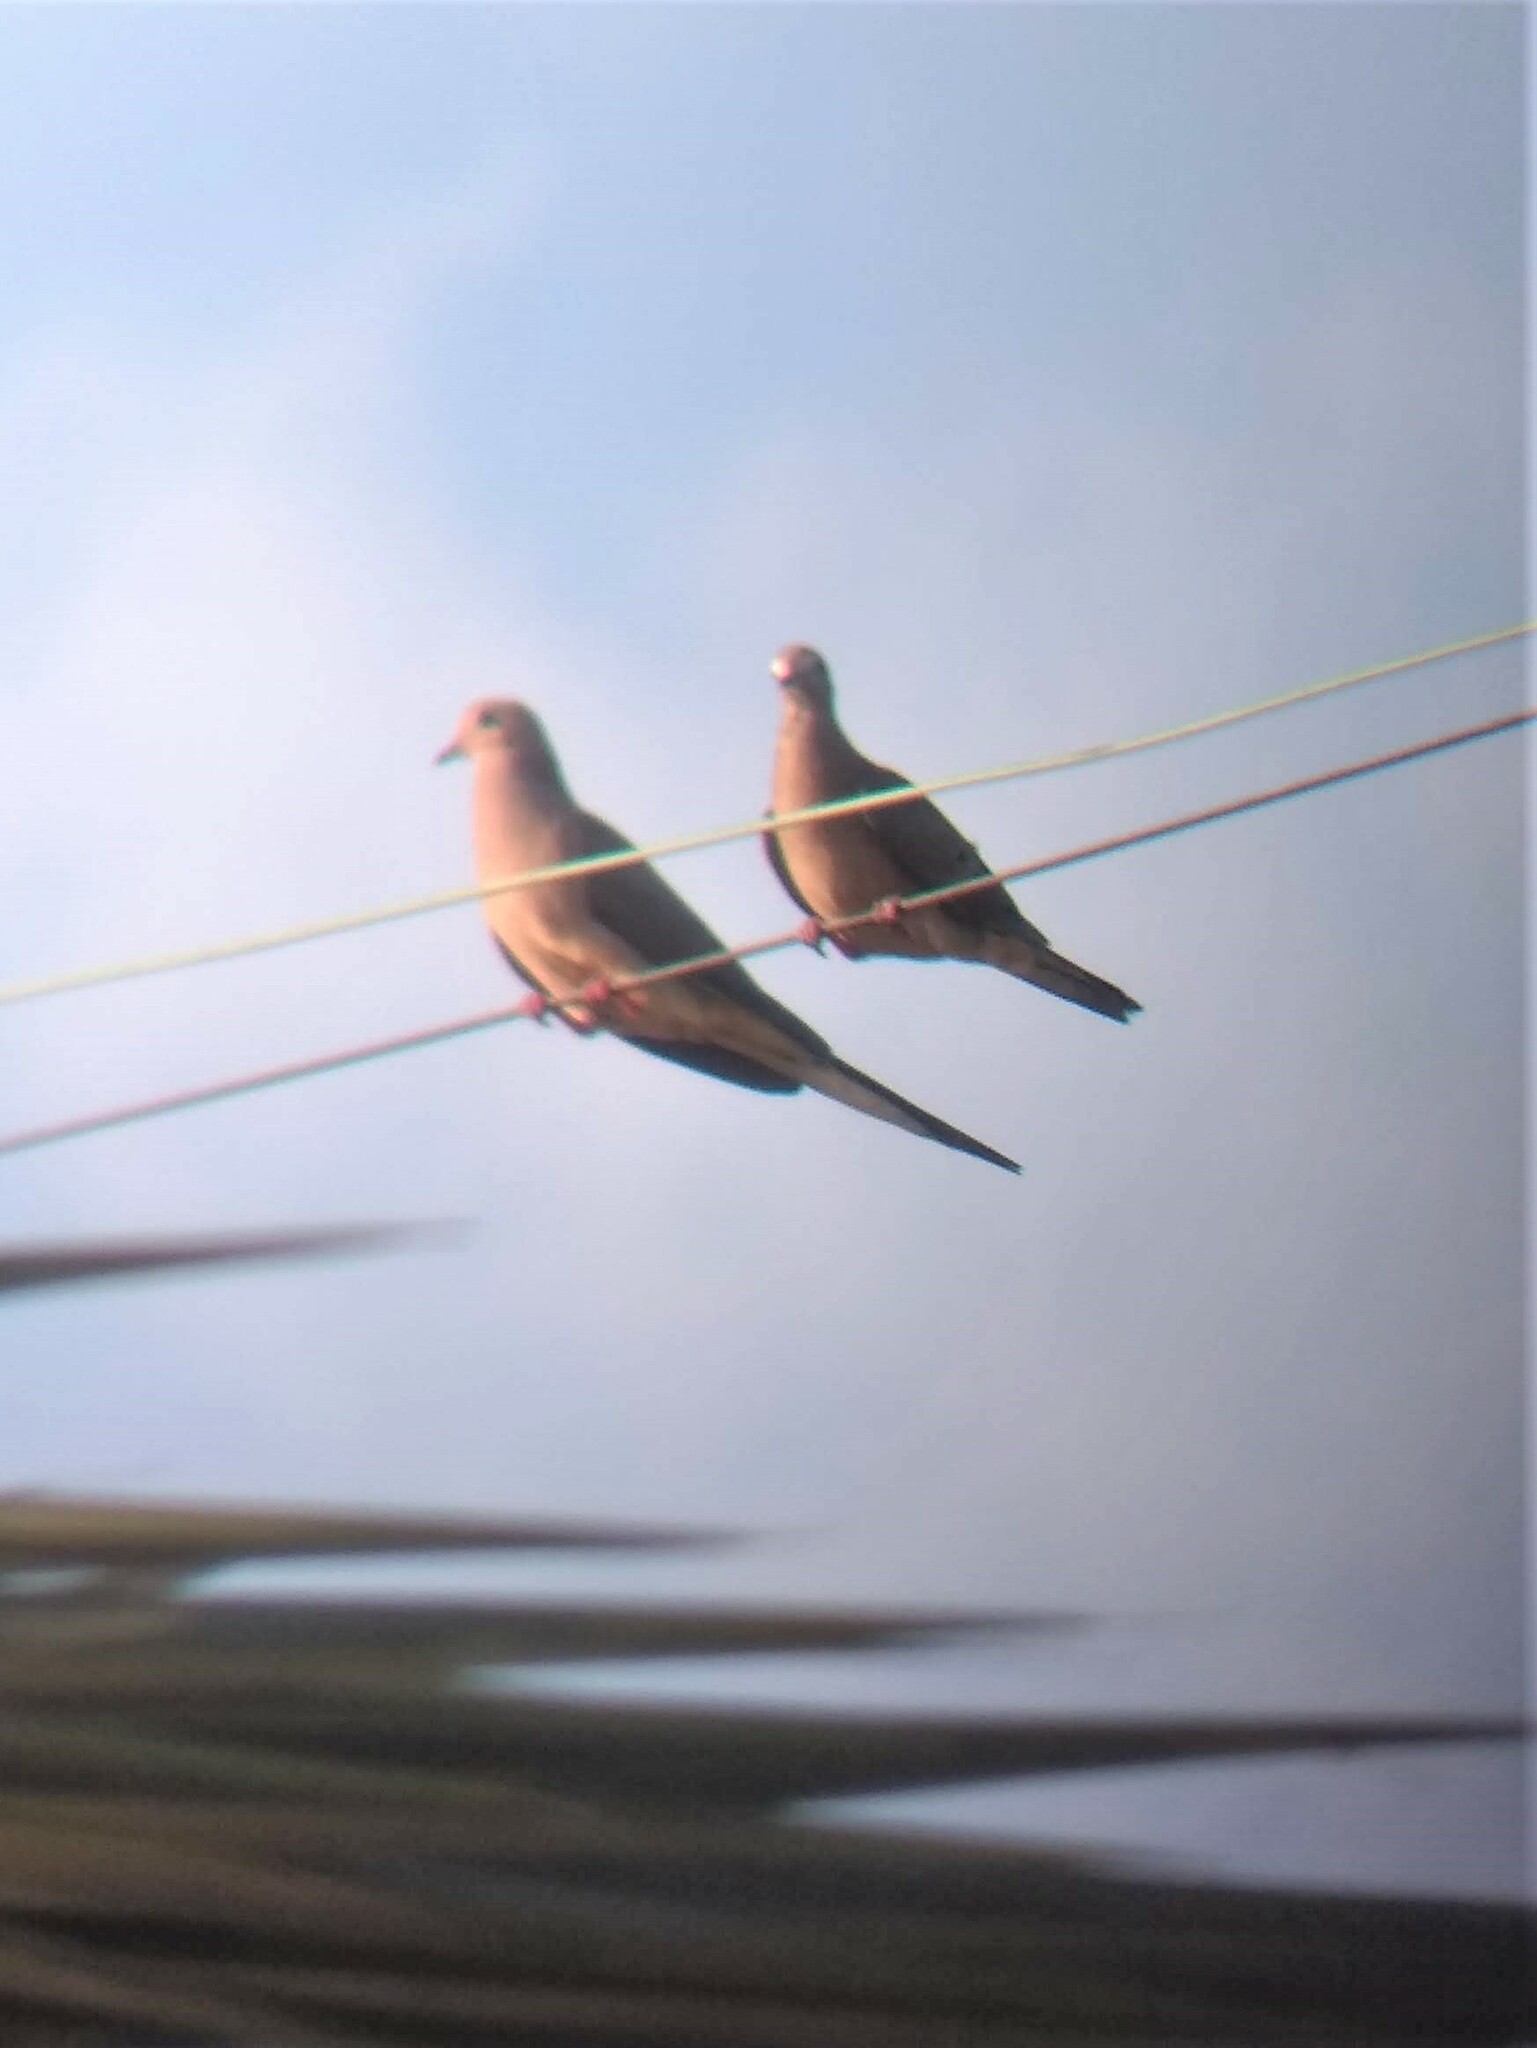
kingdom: Animalia
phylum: Chordata
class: Aves
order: Columbiformes
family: Columbidae
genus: Zenaida
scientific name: Zenaida macroura
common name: Mourning dove
